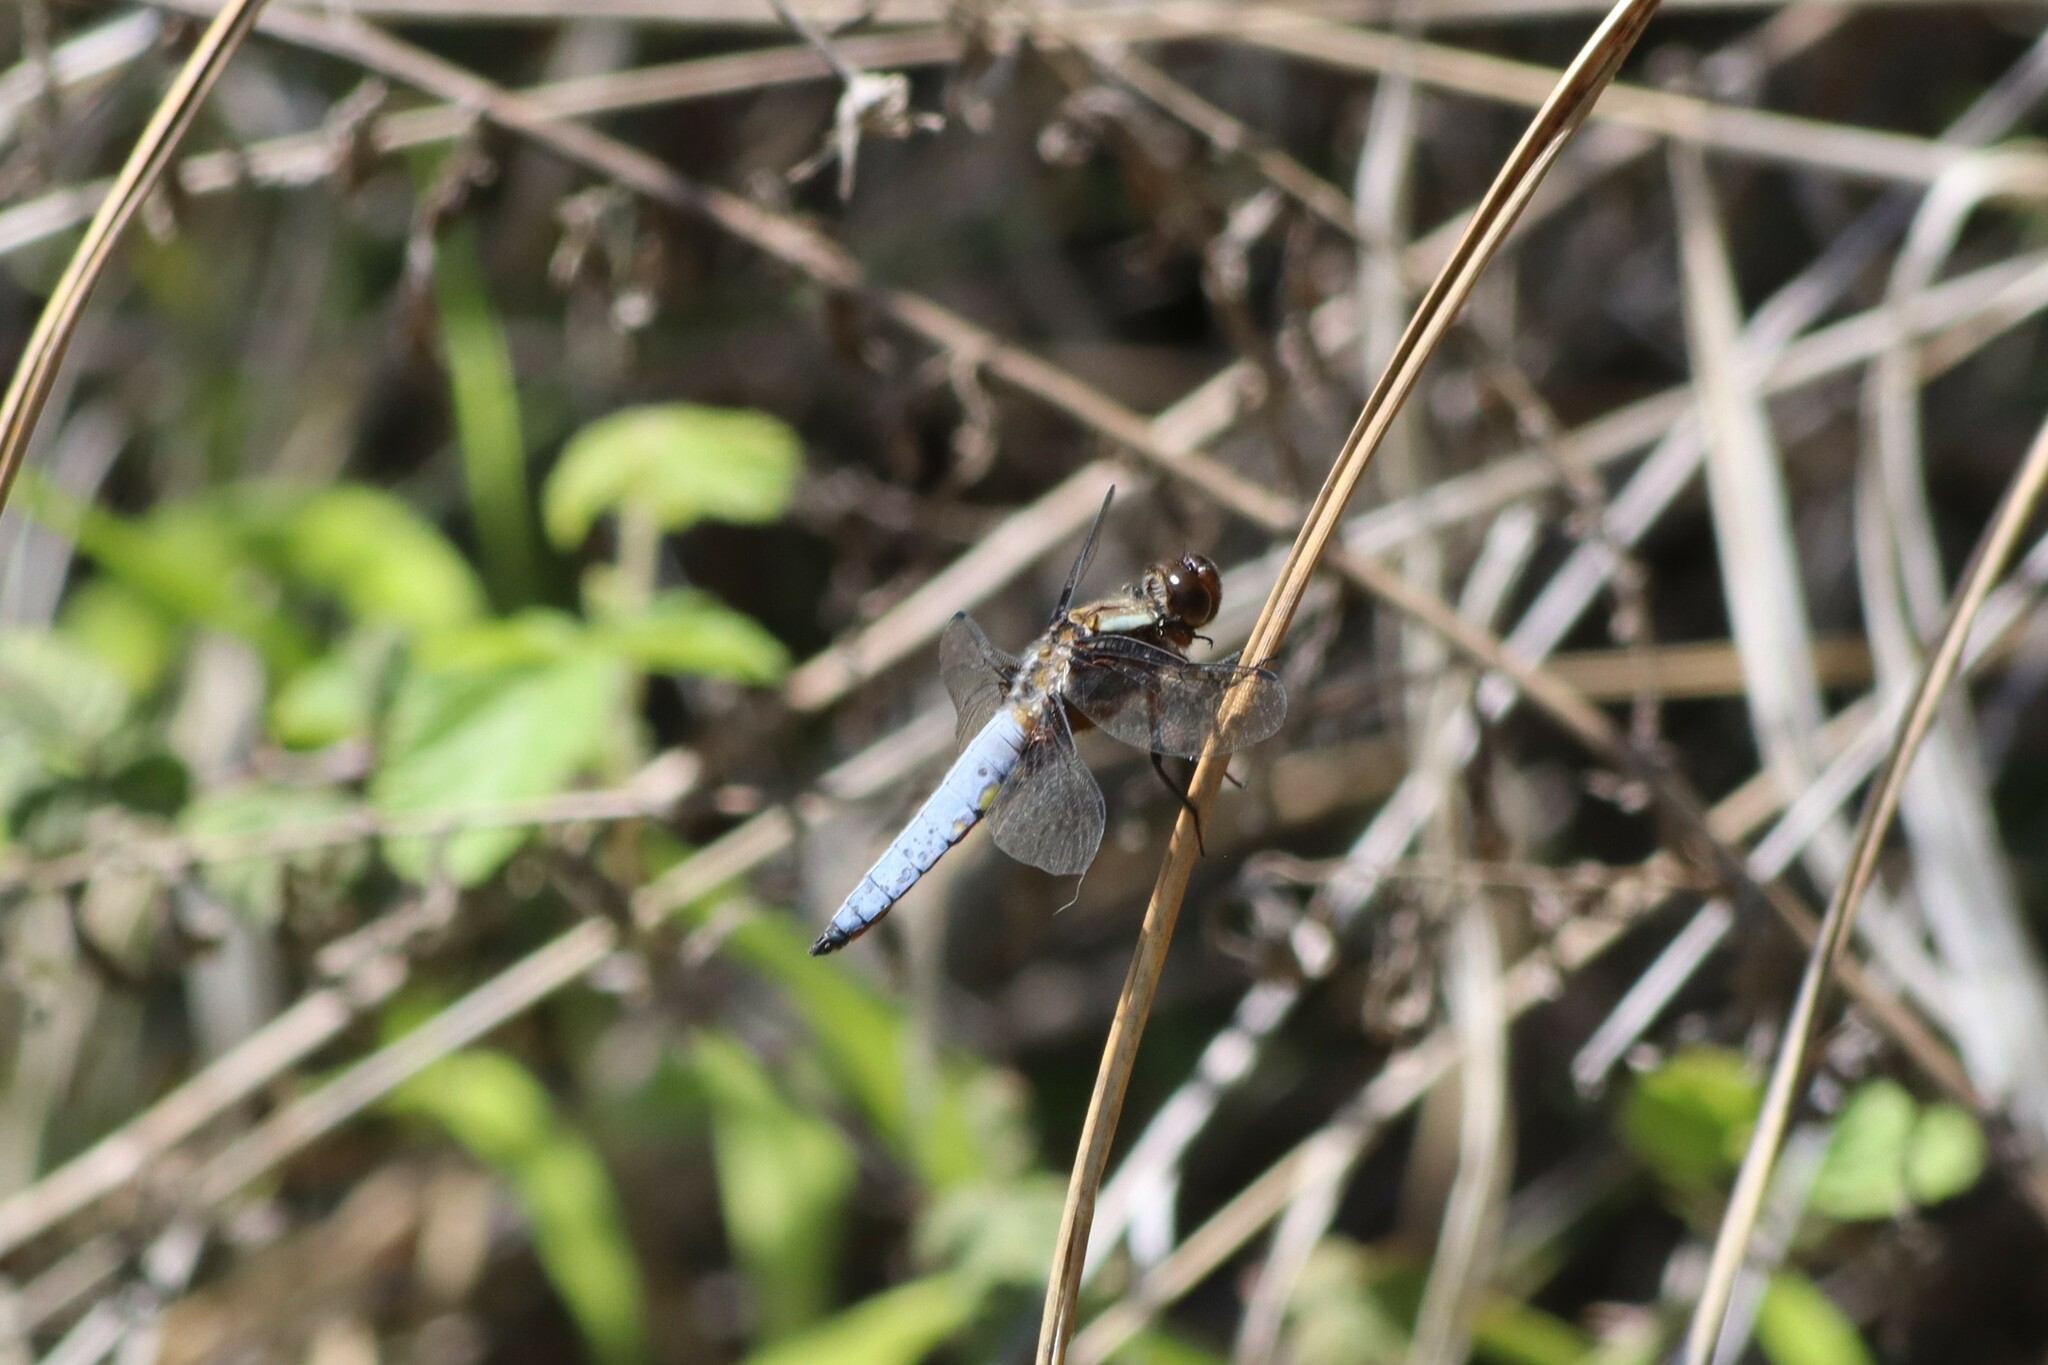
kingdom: Animalia
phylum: Arthropoda
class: Insecta
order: Odonata
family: Libellulidae
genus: Libellula
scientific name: Libellula depressa
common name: Broad-bodied chaser
